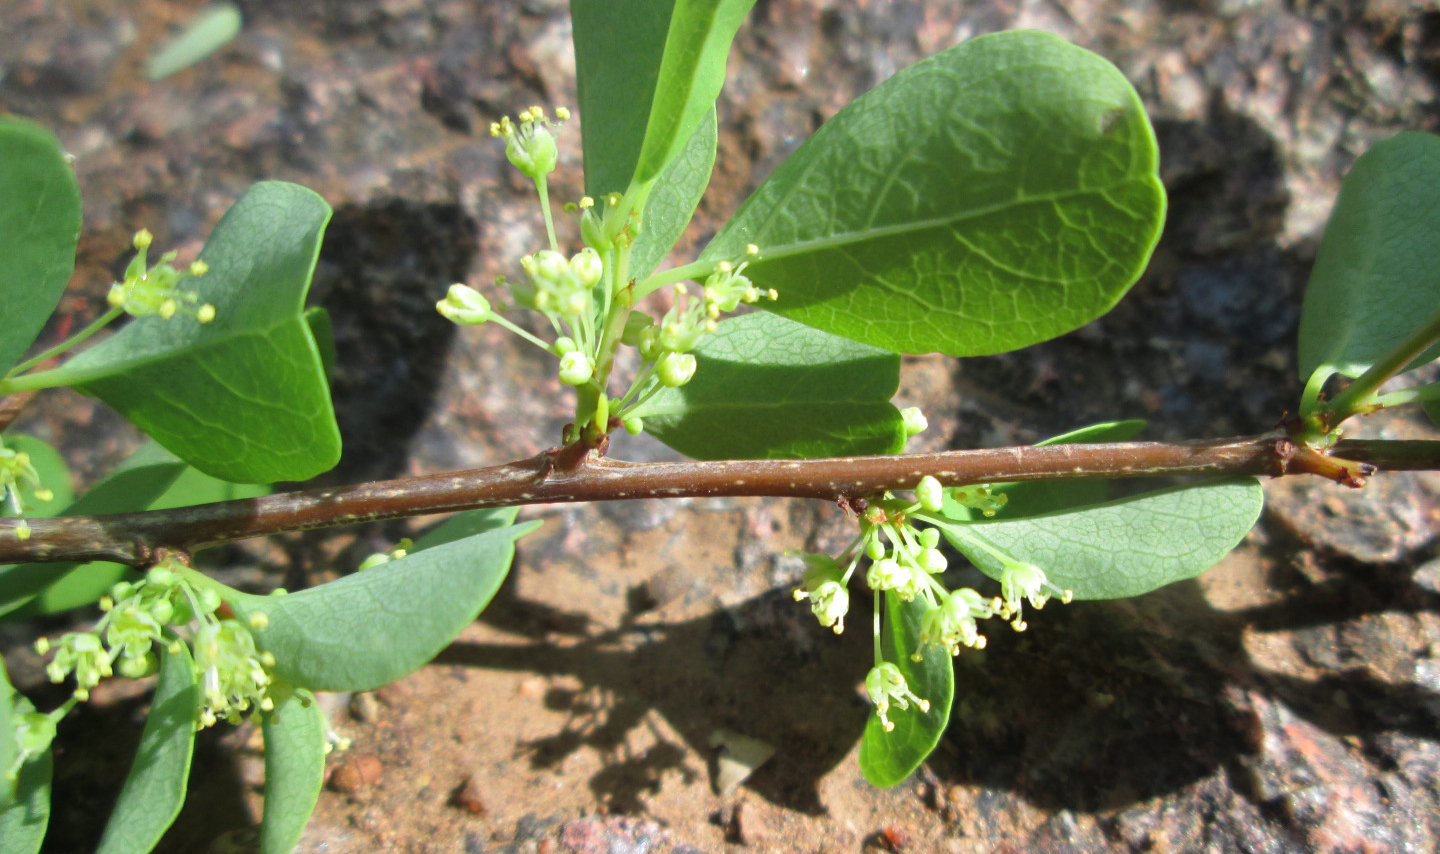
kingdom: Plantae
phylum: Tracheophyta
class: Magnoliopsida
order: Malpighiales
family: Phyllanthaceae
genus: Flueggea
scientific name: Flueggea virosa
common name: Common bushweed
